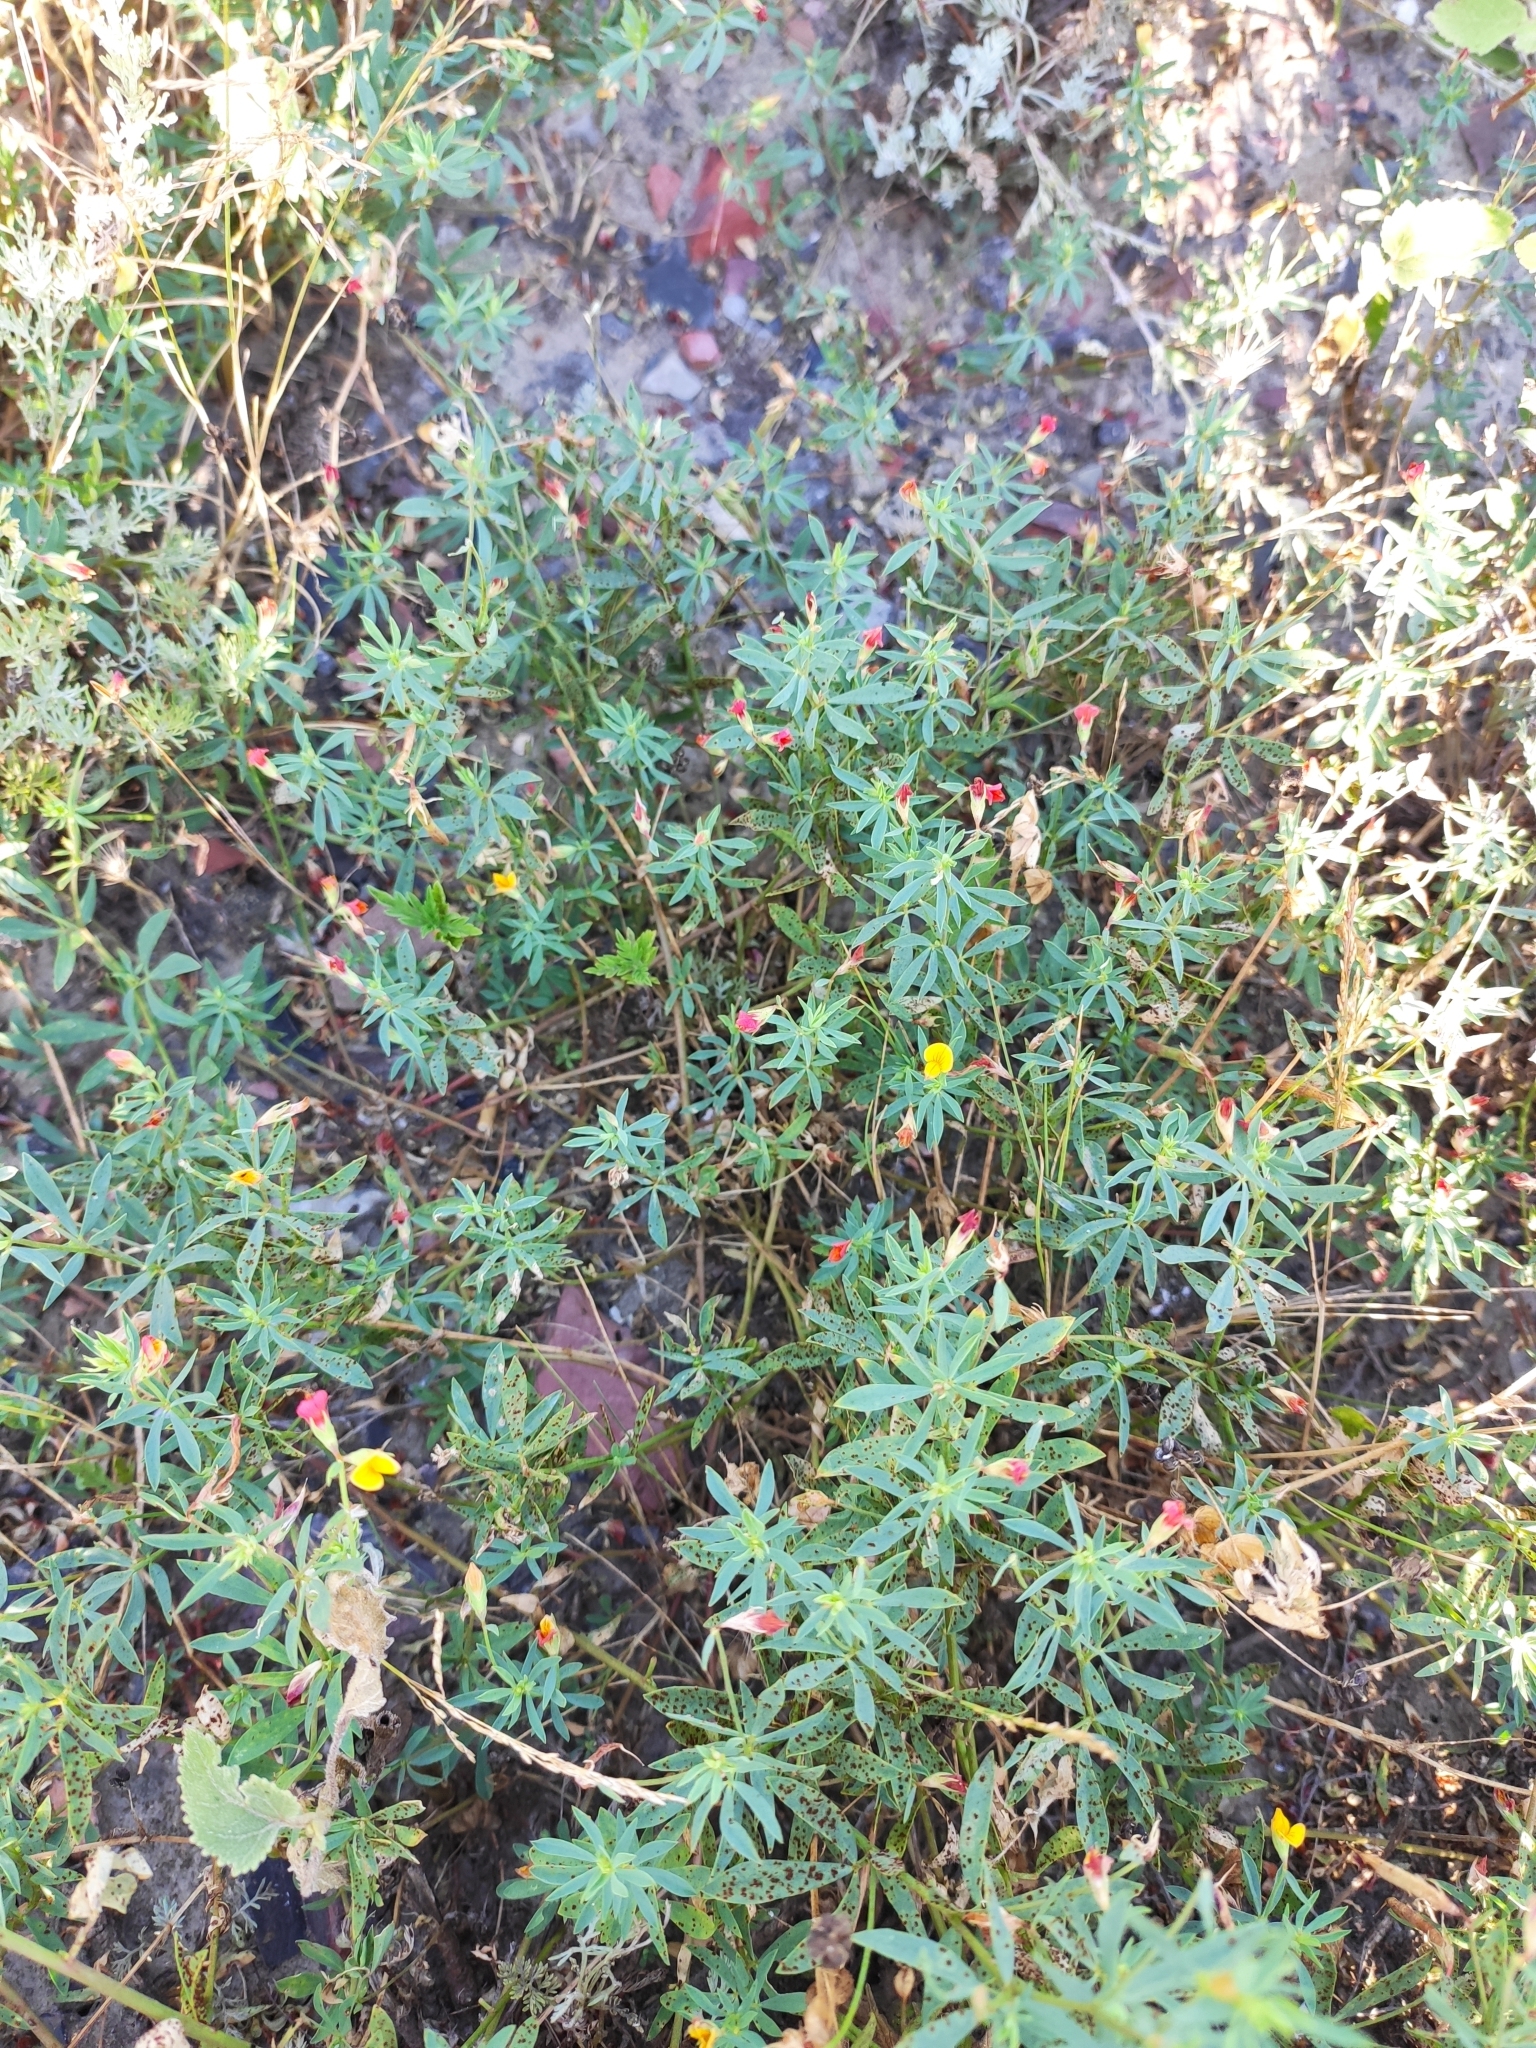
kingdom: Plantae
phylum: Tracheophyta
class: Magnoliopsida
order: Fabales
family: Fabaceae
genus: Lotus
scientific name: Lotus frondosus
